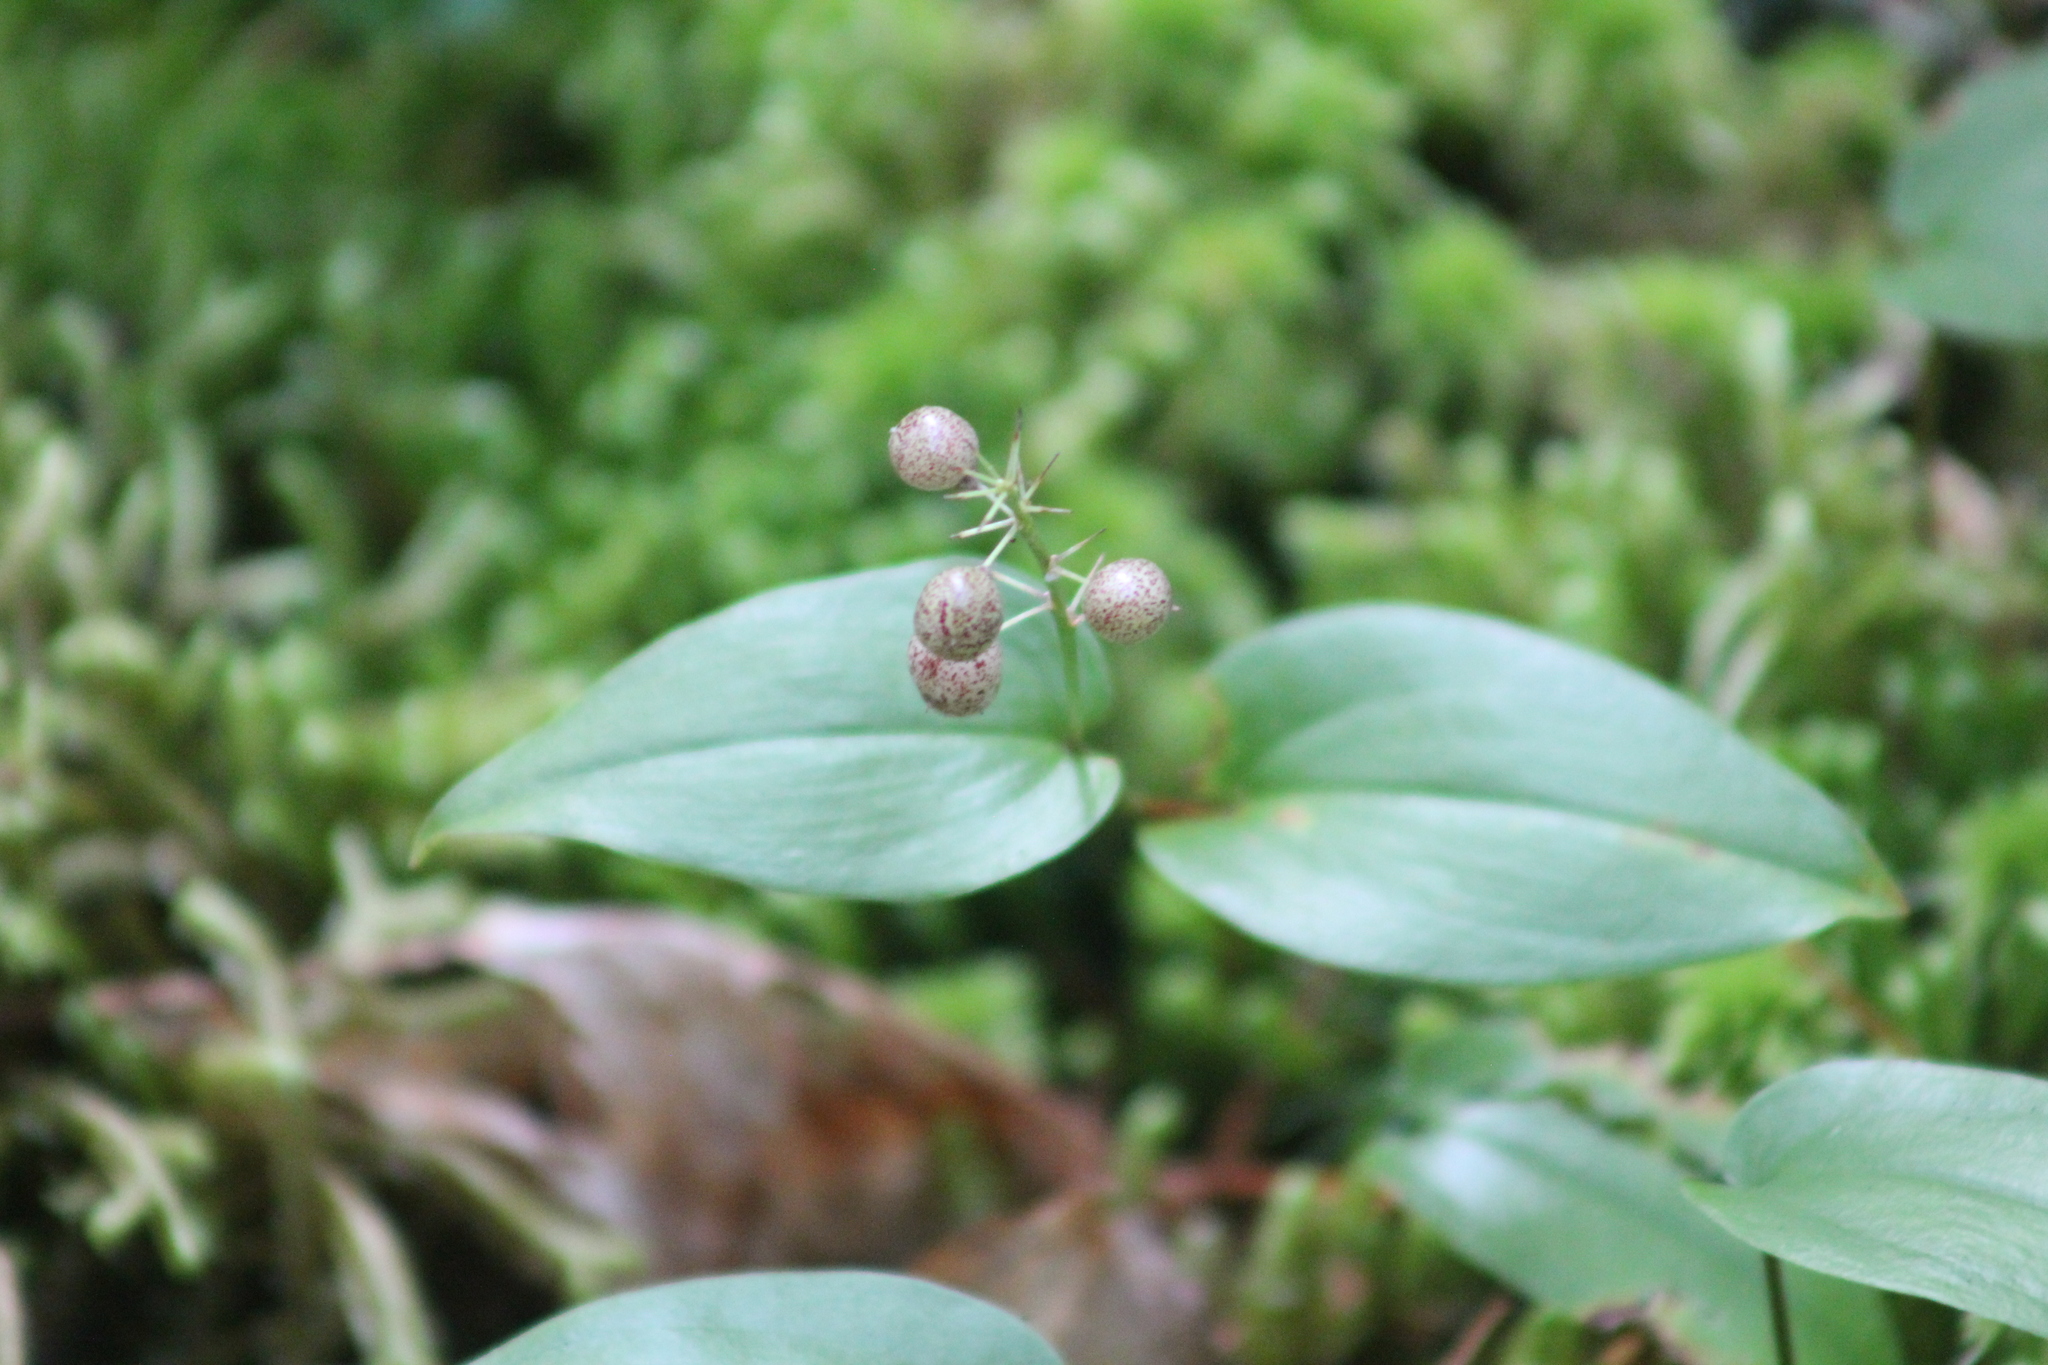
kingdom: Plantae
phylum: Tracheophyta
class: Liliopsida
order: Asparagales
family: Asparagaceae
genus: Maianthemum
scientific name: Maianthemum canadense
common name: False lily-of-the-valley
